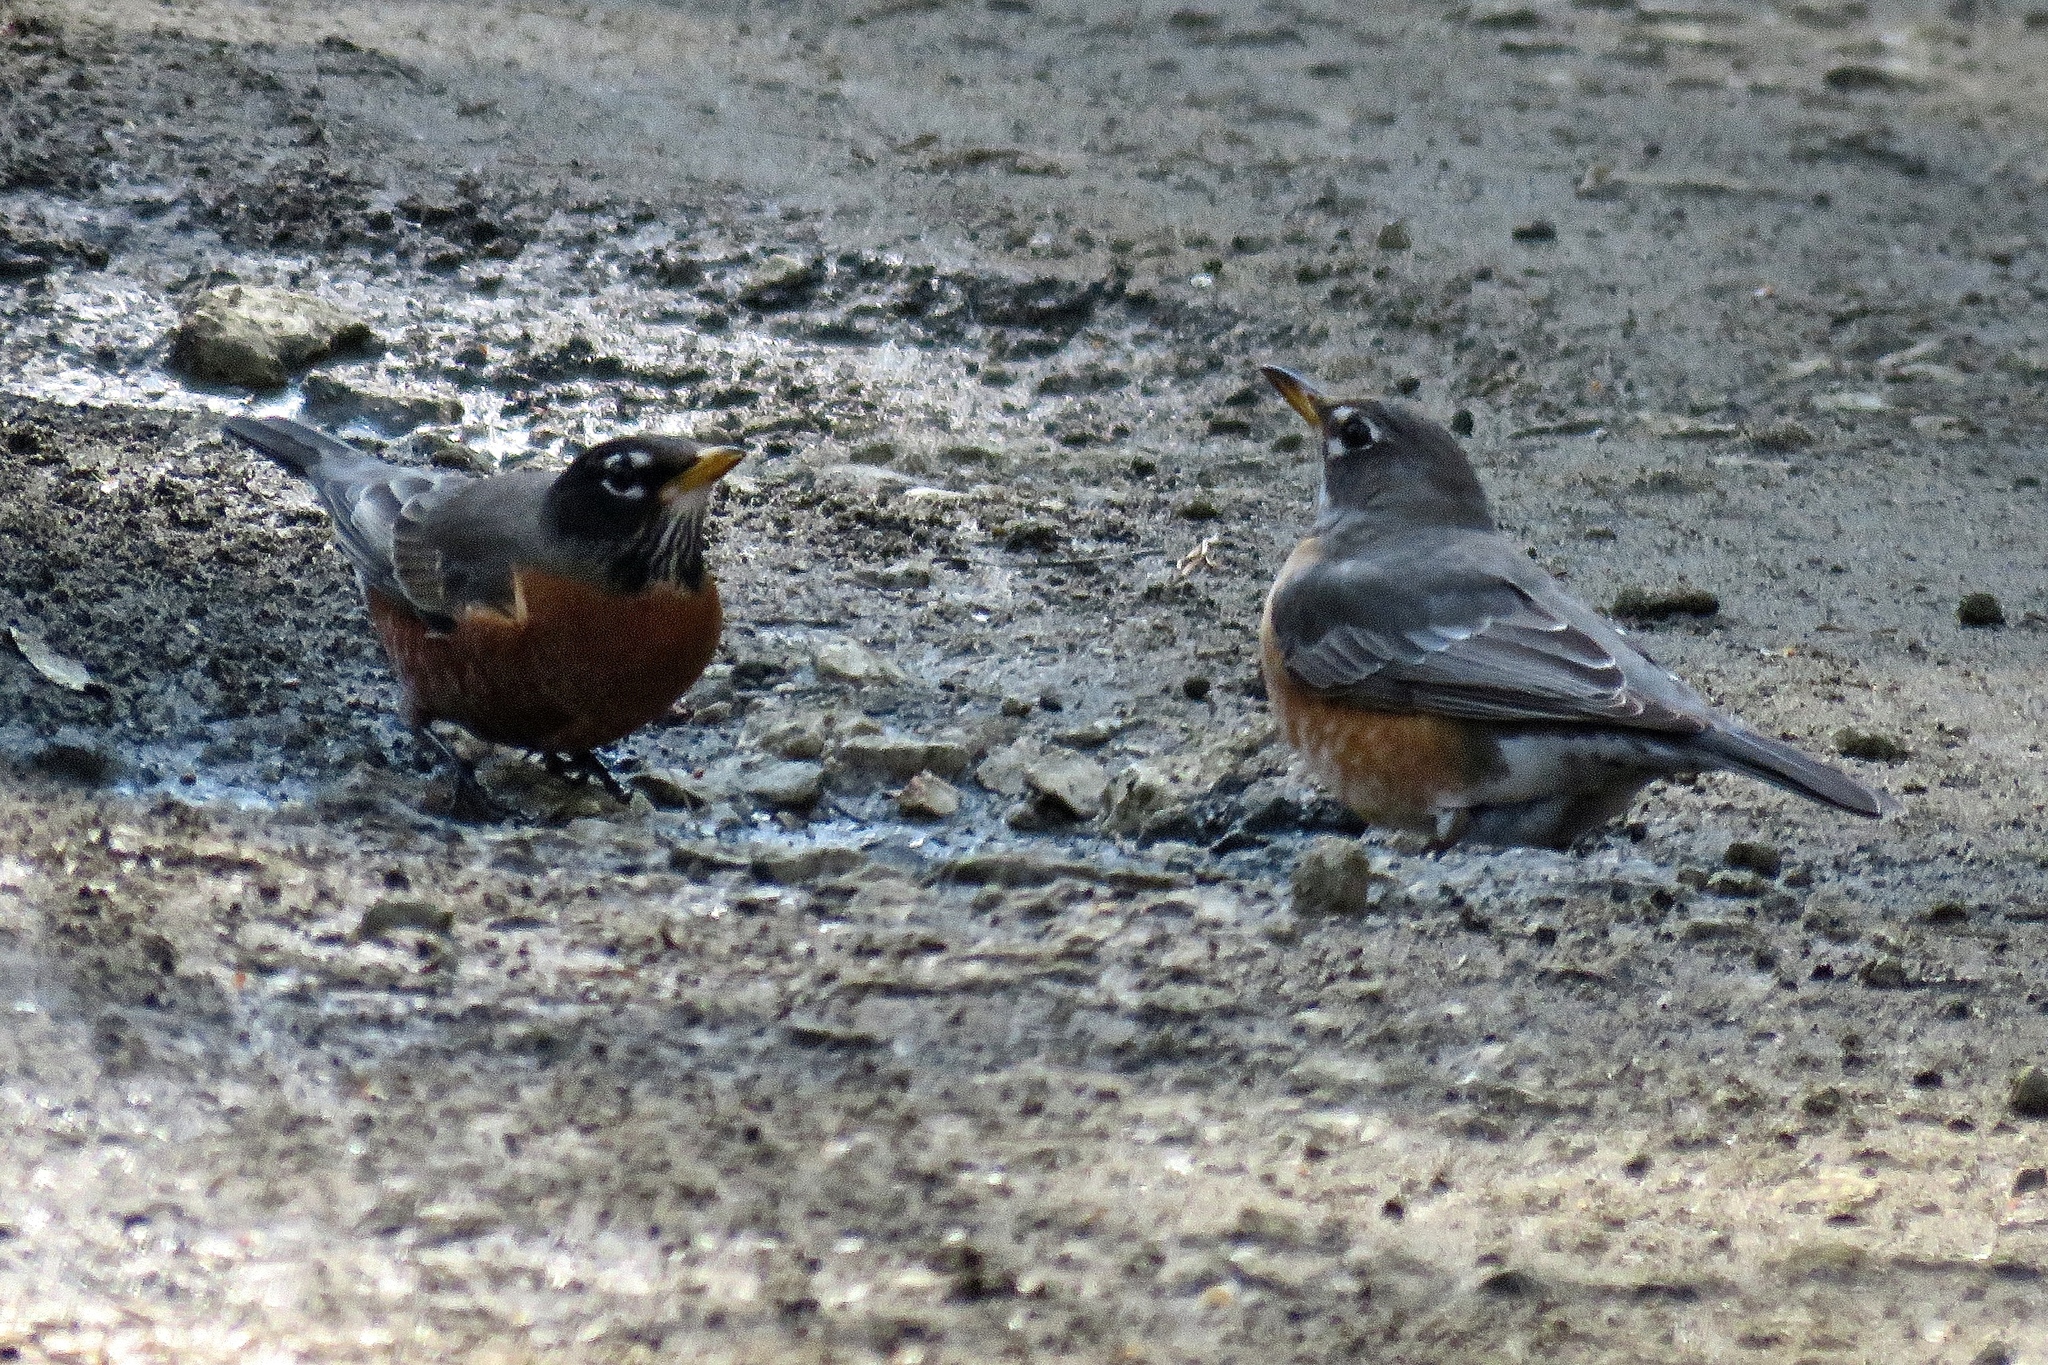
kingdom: Animalia
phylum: Chordata
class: Aves
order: Passeriformes
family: Turdidae
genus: Turdus
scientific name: Turdus migratorius
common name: American robin
